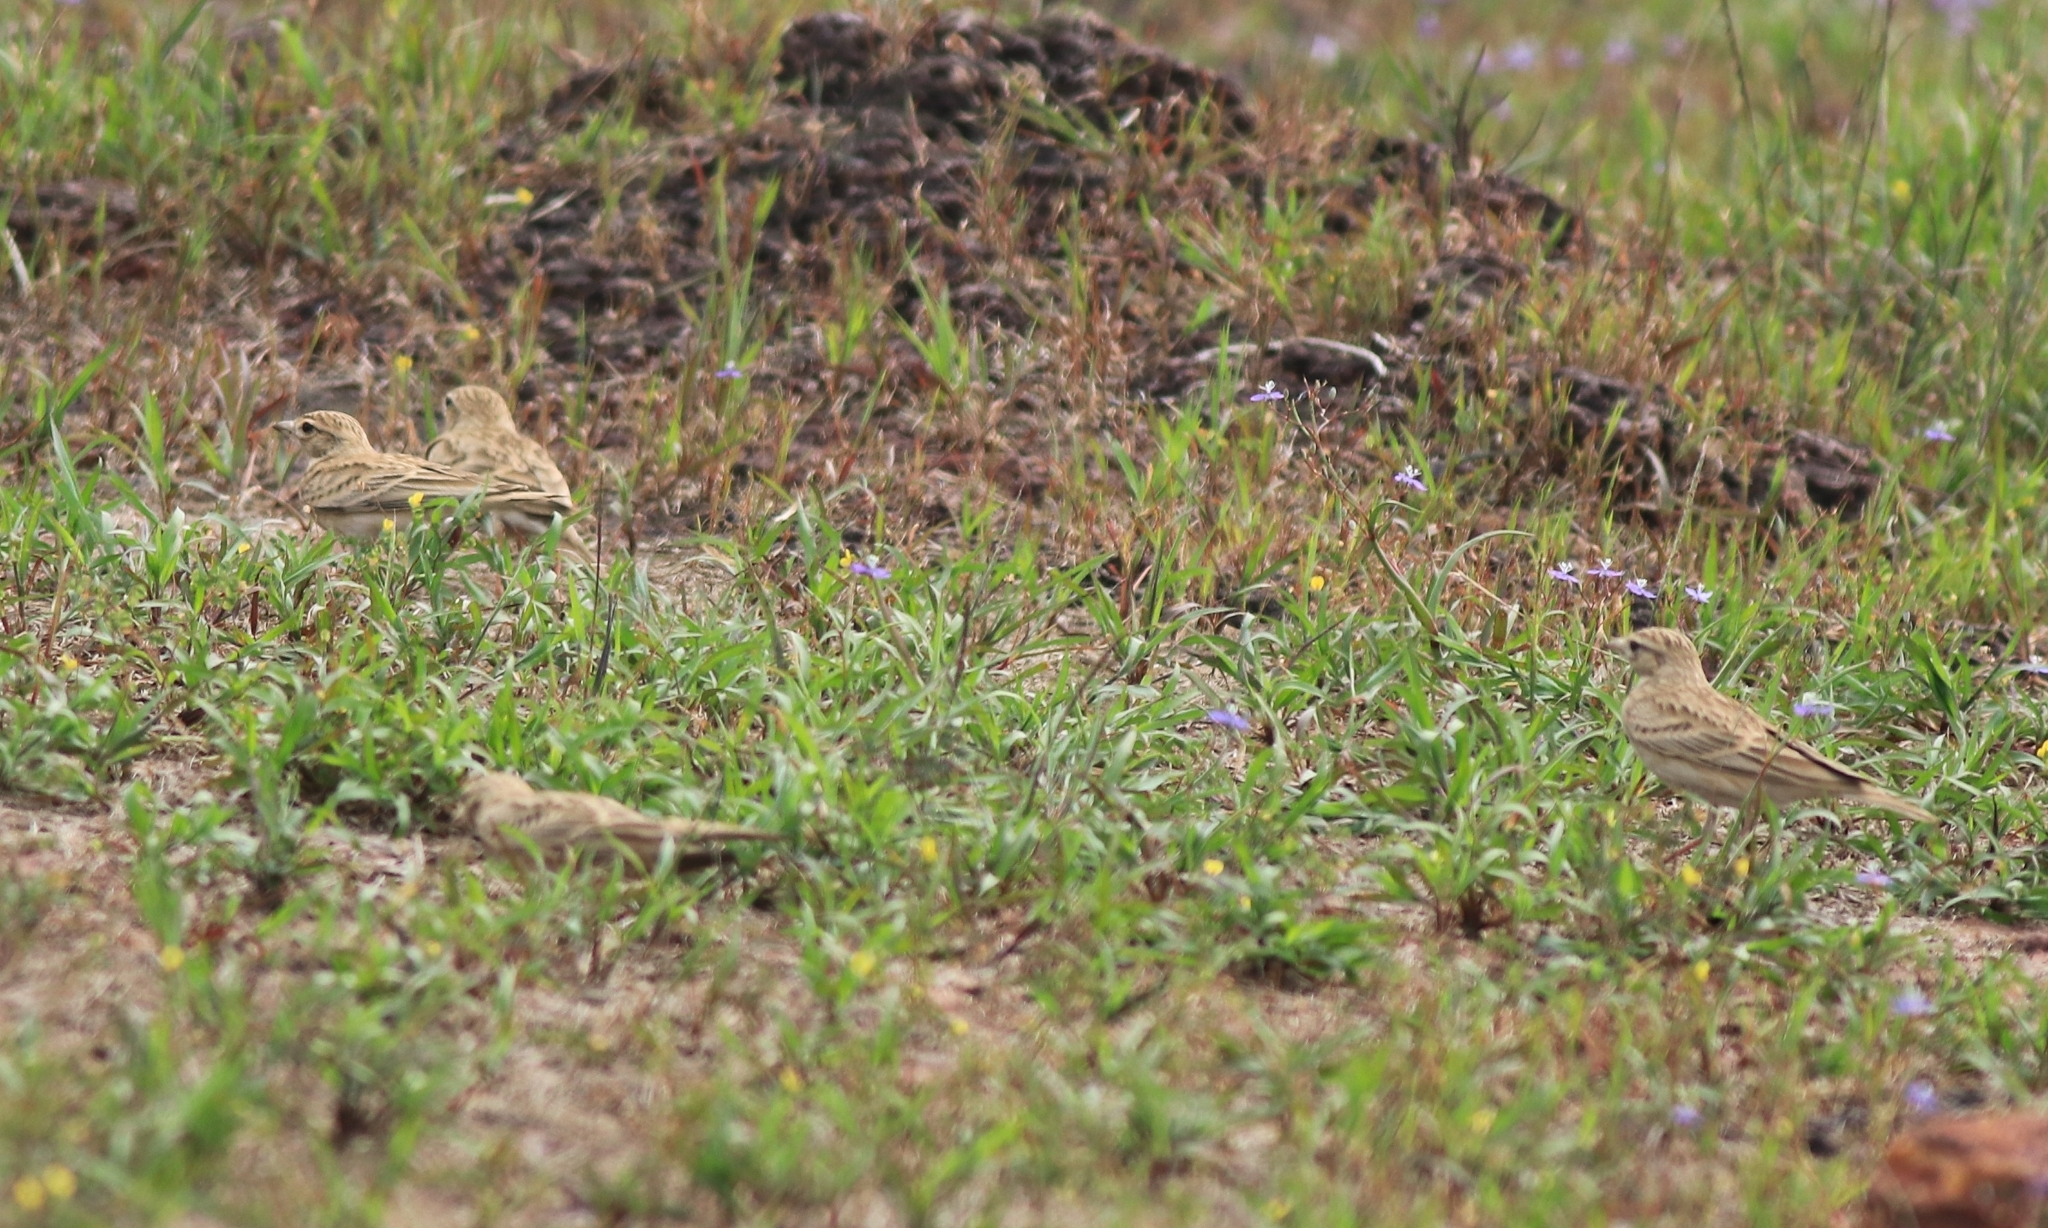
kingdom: Animalia
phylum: Chordata
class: Aves
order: Passeriformes
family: Alaudidae
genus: Calandrella
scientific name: Calandrella brachydactyla
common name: Greater short-toed lark
